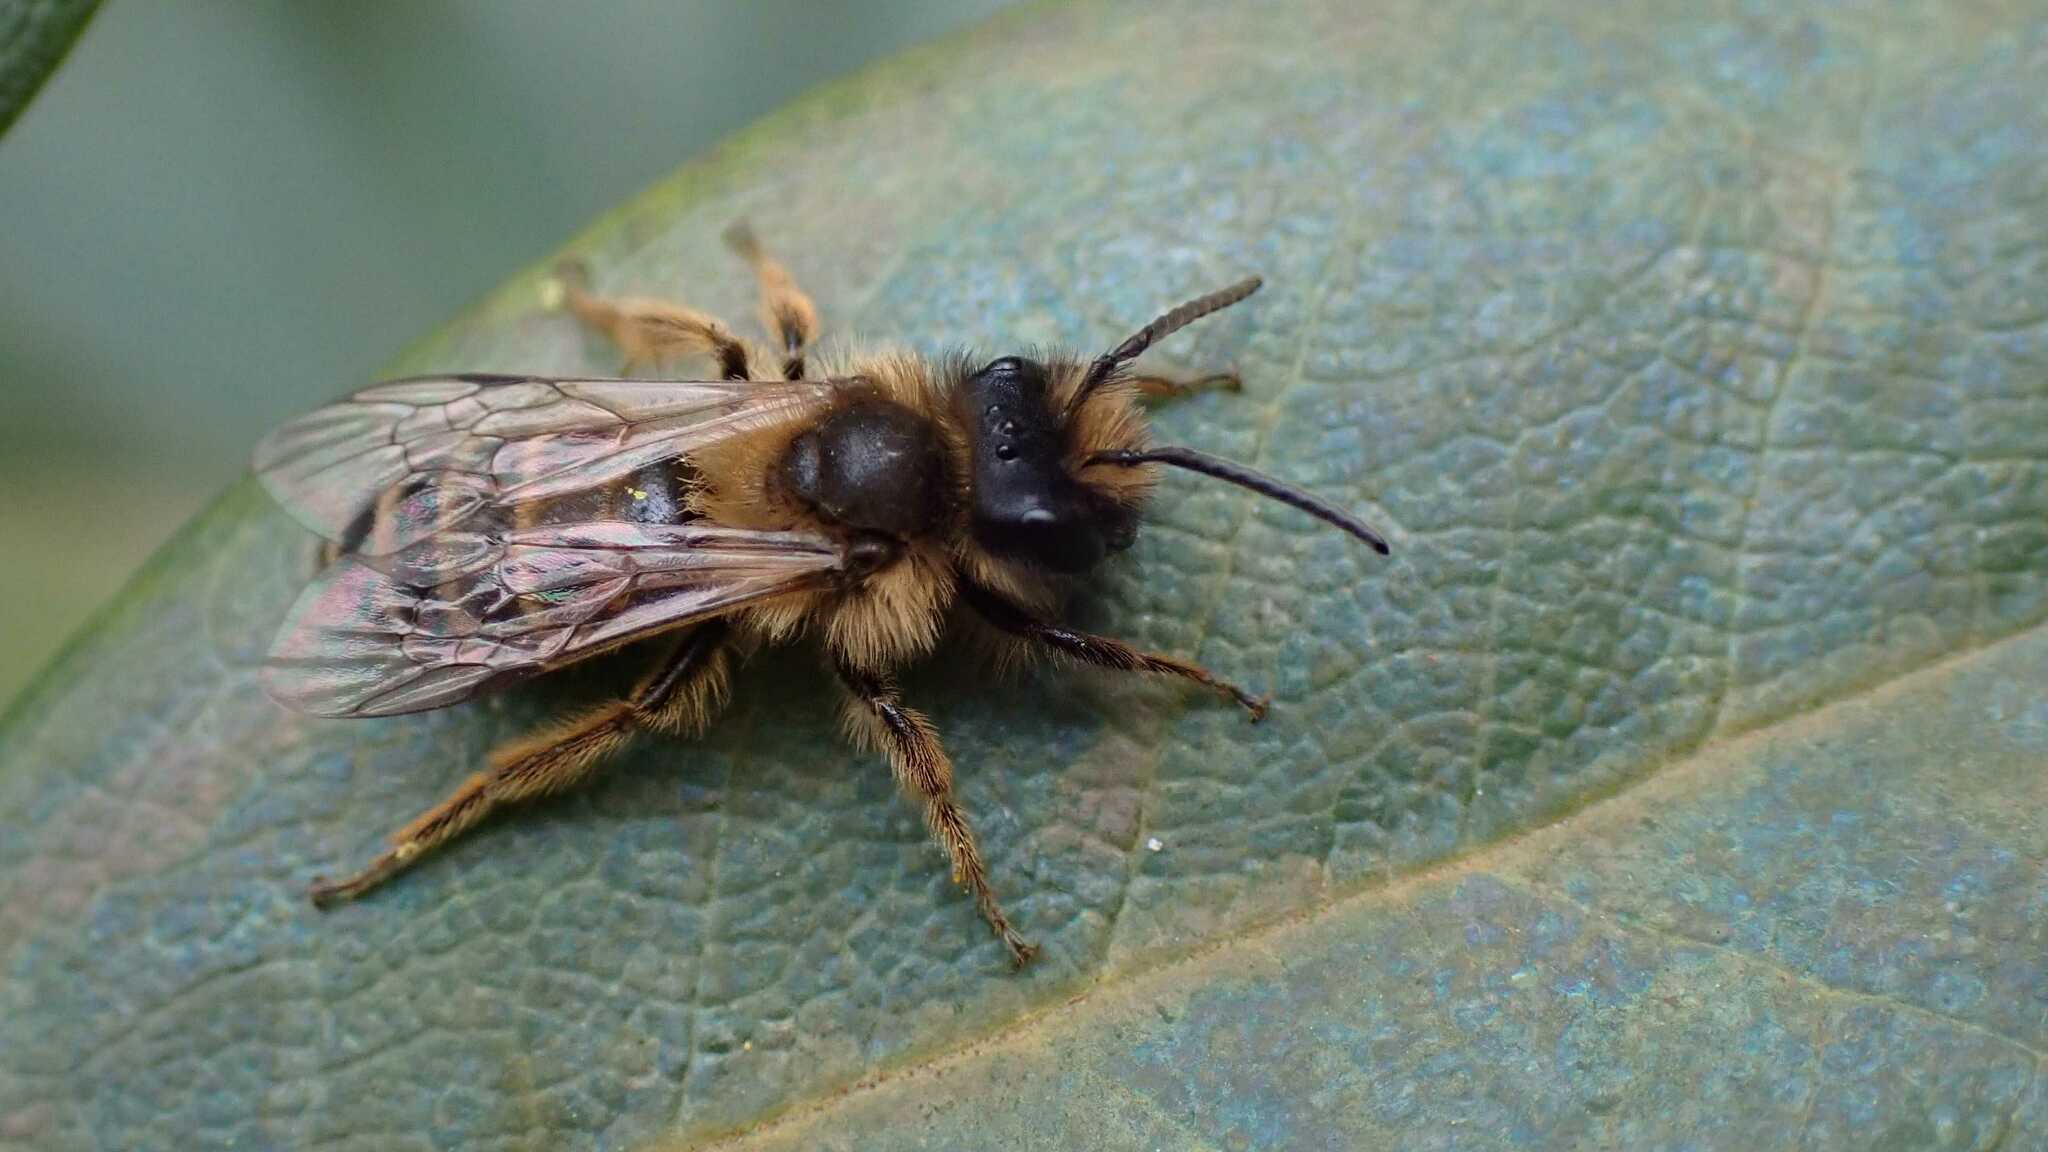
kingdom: Animalia
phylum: Arthropoda
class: Insecta
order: Hymenoptera
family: Andrenidae
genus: Andrena
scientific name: Andrena flavipes
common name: Yellow-legged mining bee
